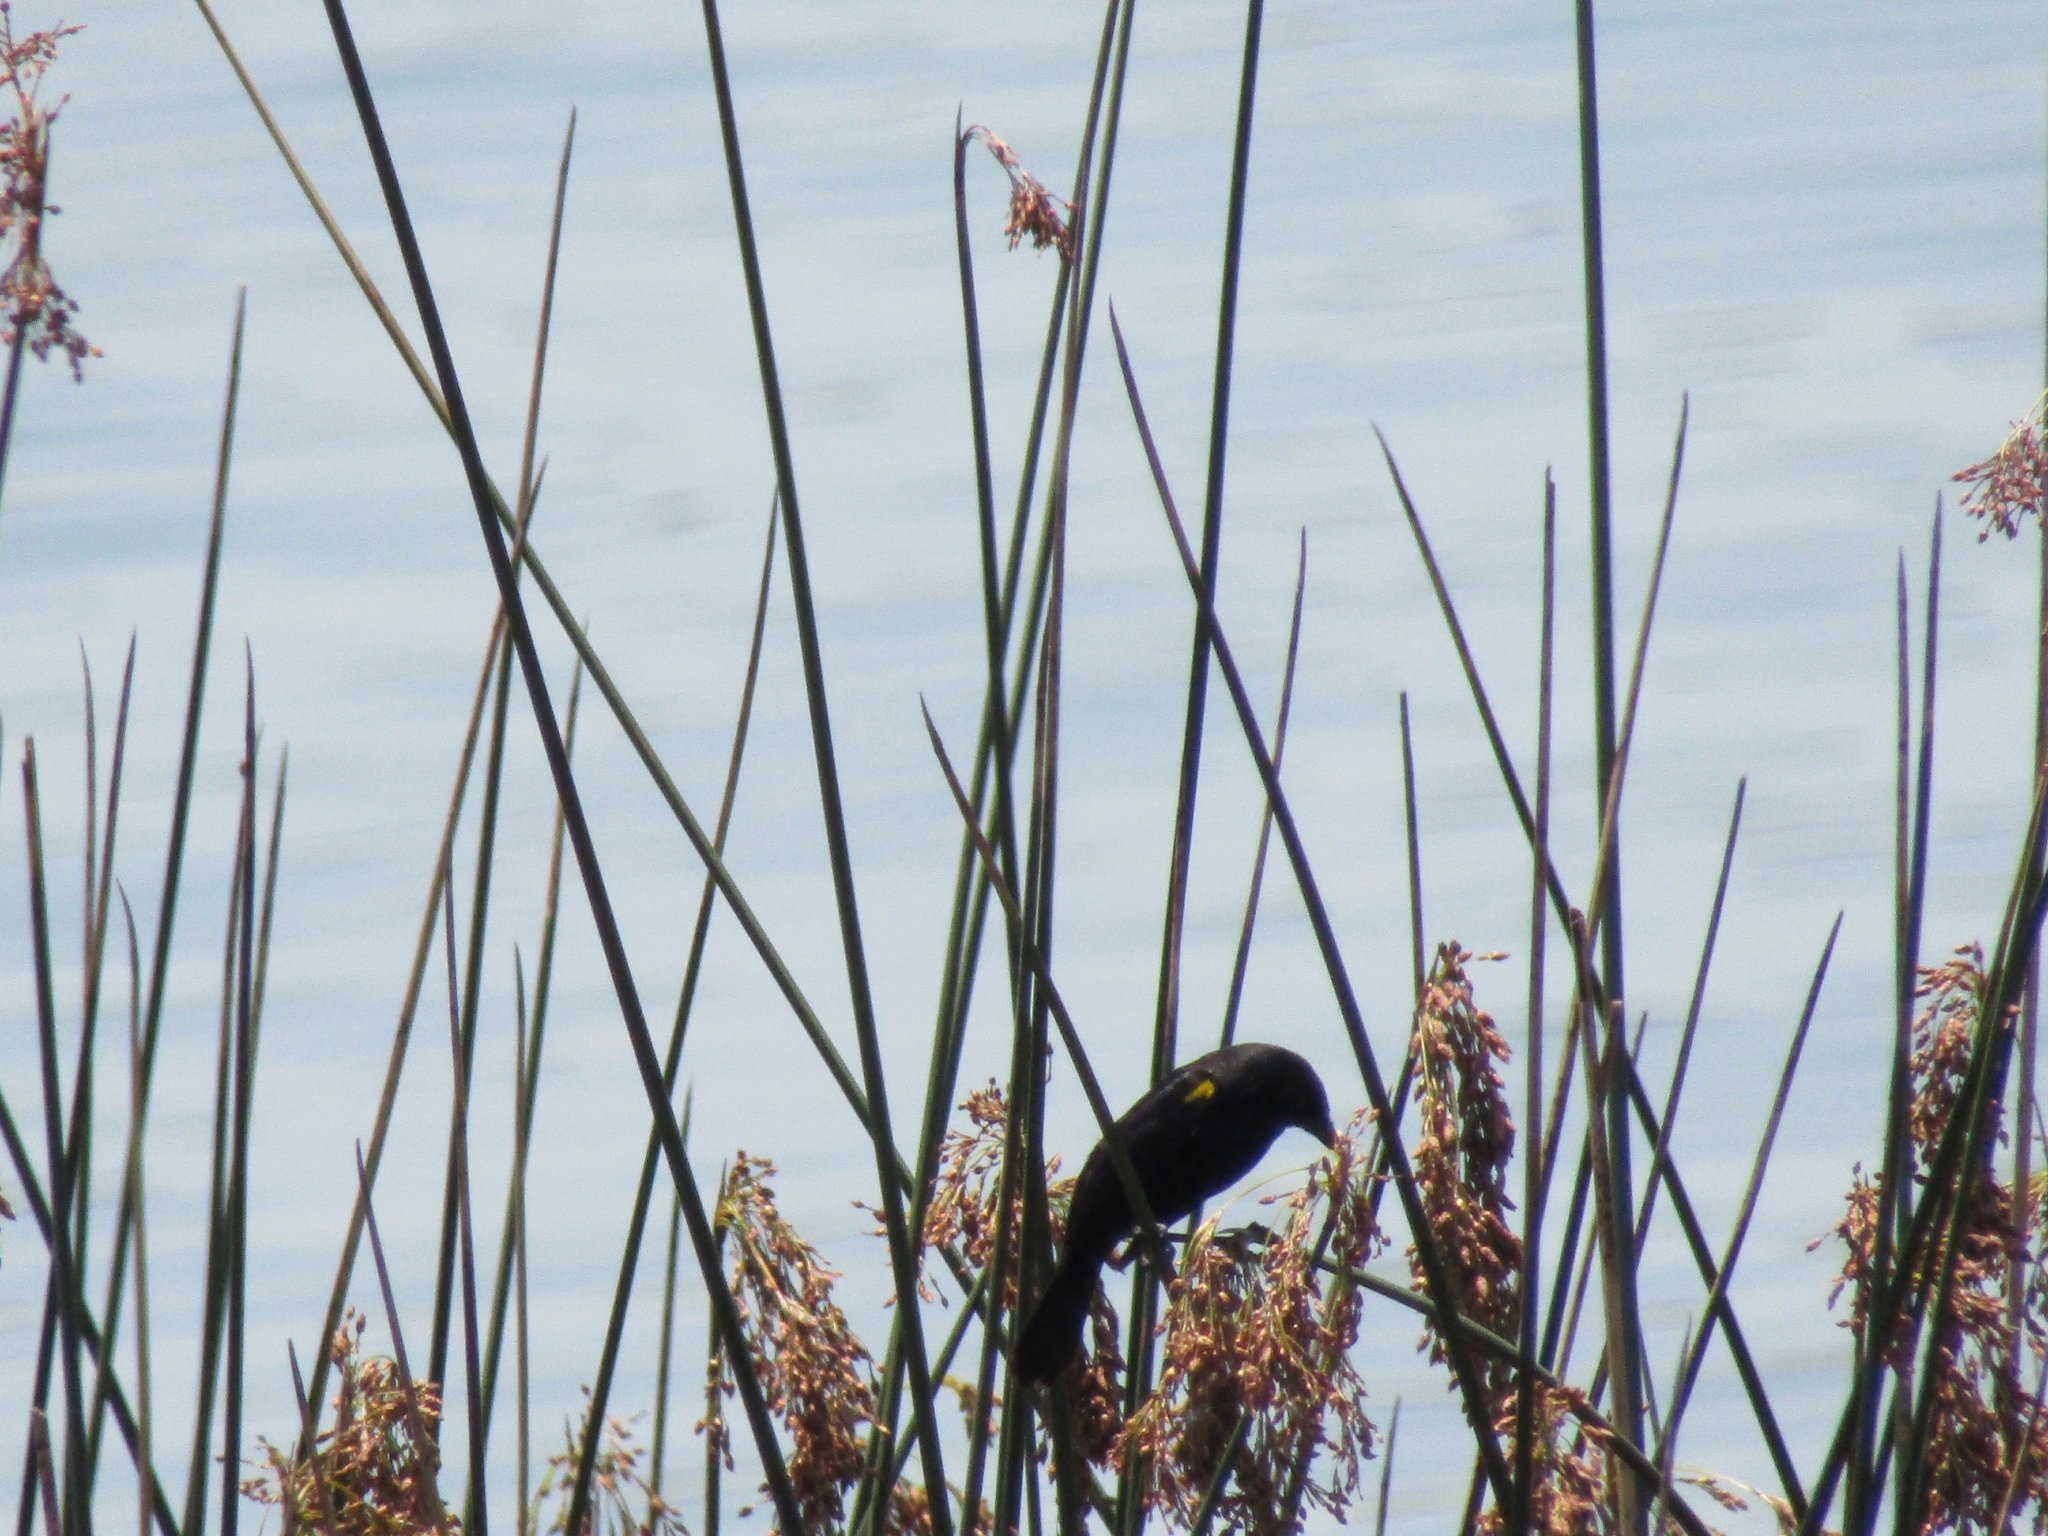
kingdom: Animalia
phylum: Chordata
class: Aves
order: Passeriformes
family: Icteridae
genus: Agelasticus
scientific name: Agelasticus thilius
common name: Yellow-winged blackbird
